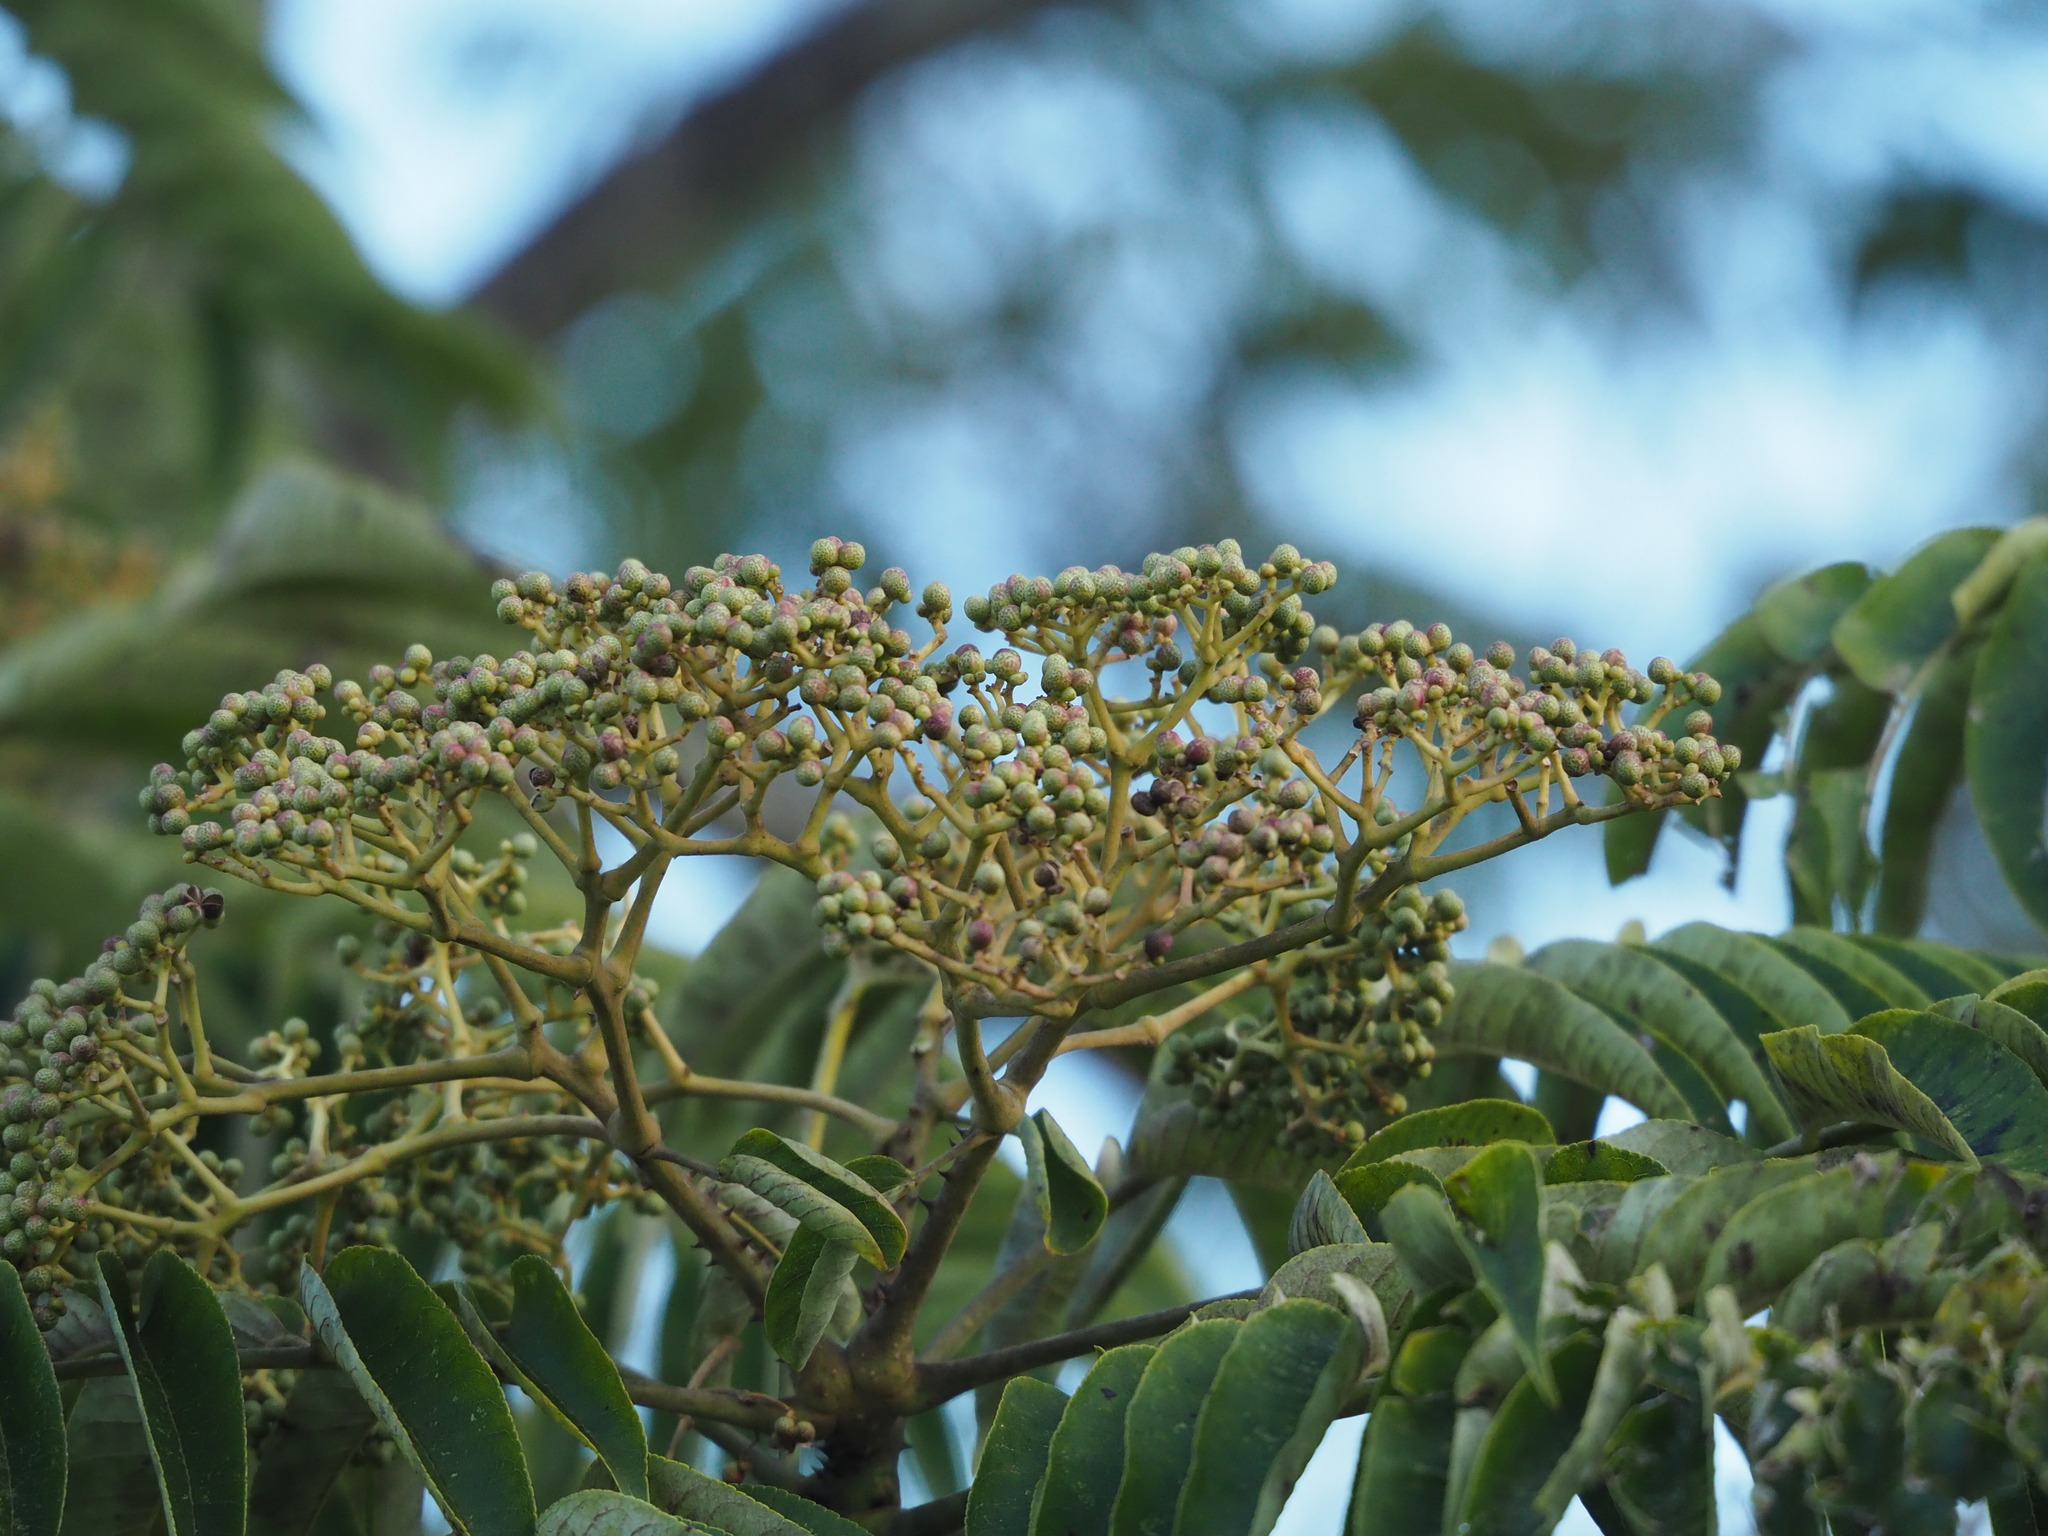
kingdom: Plantae
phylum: Tracheophyta
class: Magnoliopsida
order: Sapindales
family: Rutaceae
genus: Zanthoxylum
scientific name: Zanthoxylum ailanthoides
